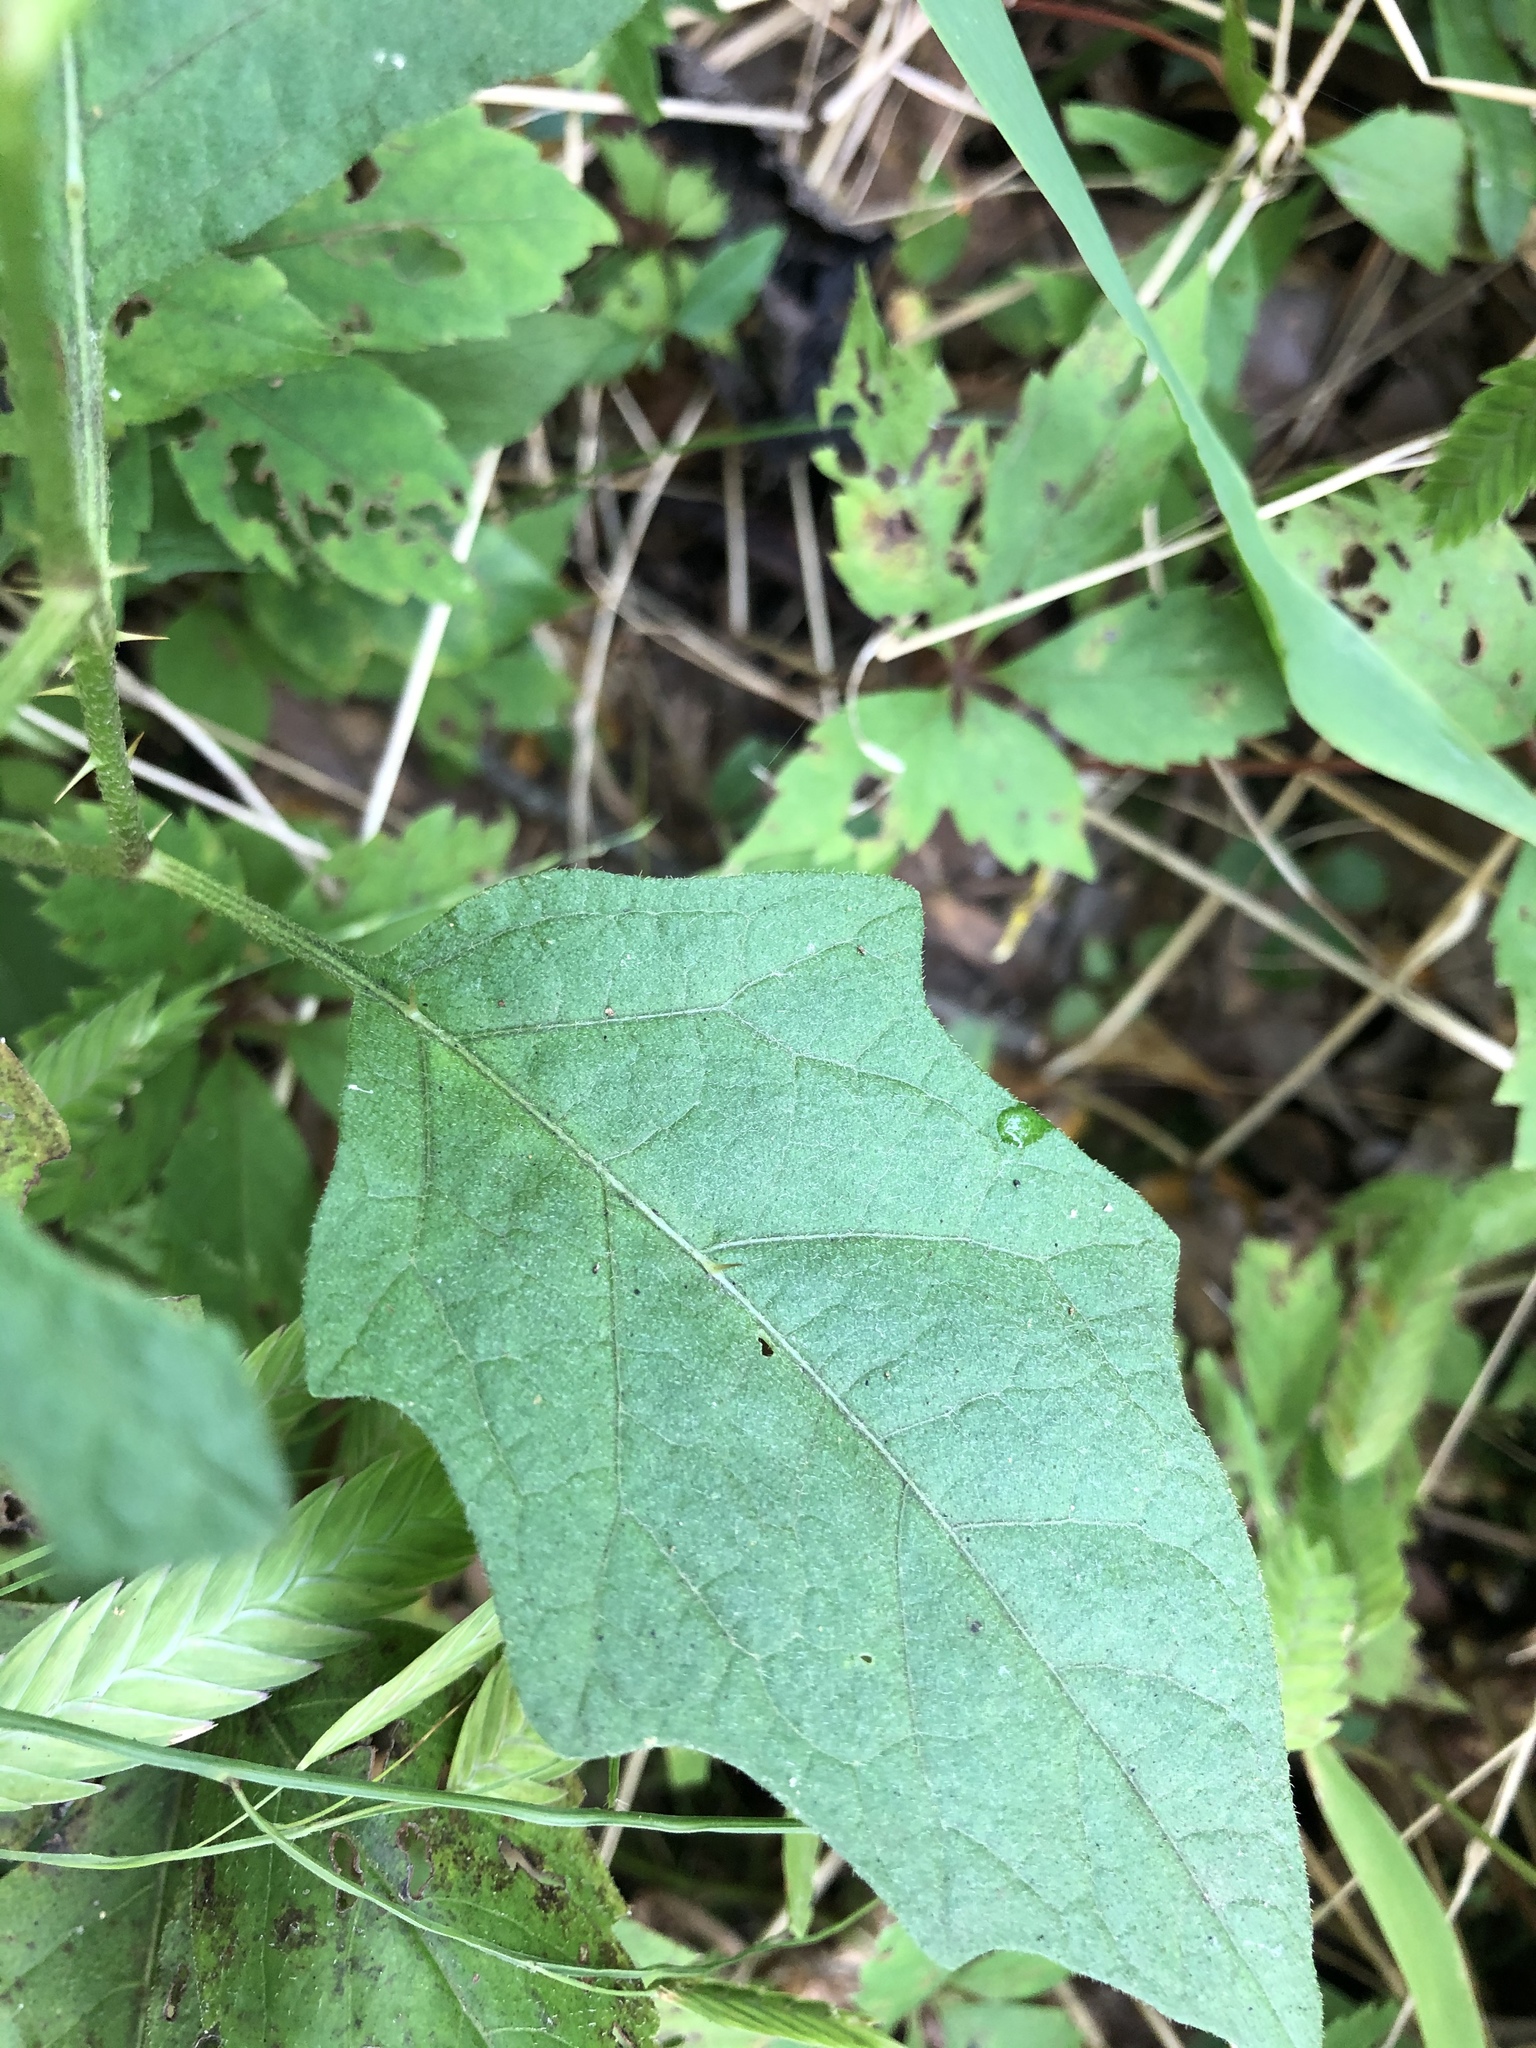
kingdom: Plantae
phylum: Tracheophyta
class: Magnoliopsida
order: Solanales
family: Solanaceae
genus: Solanum
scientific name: Solanum carolinense
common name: Horse-nettle
